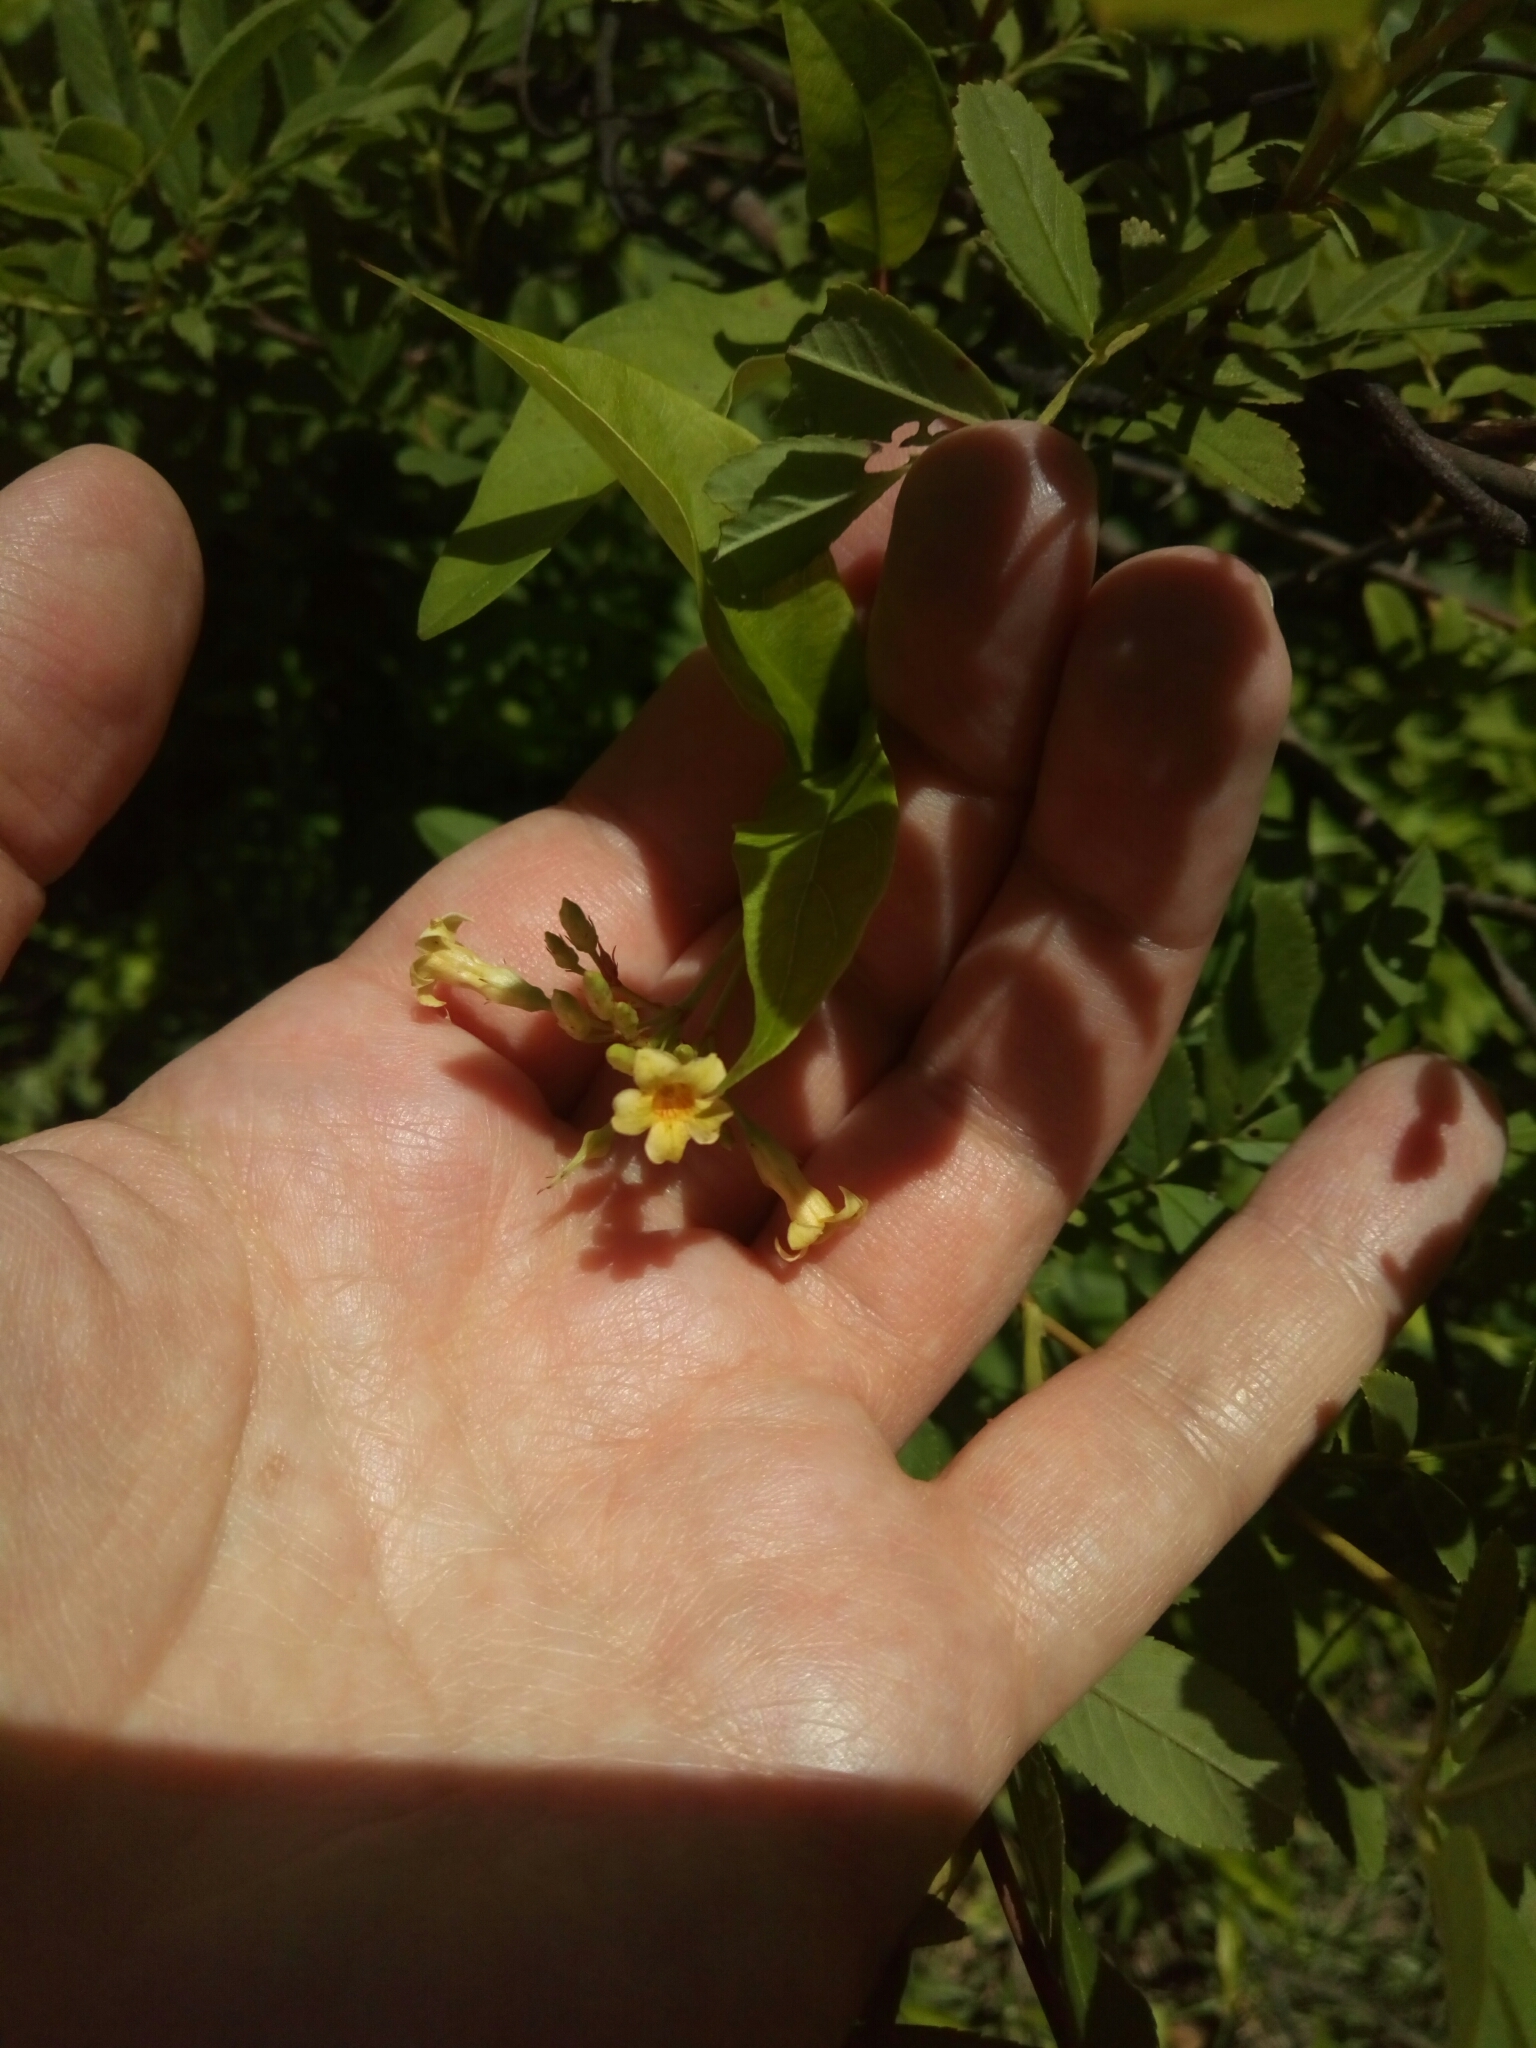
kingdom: Plantae
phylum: Tracheophyta
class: Magnoliopsida
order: Gentianales
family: Apocynaceae
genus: Thyrsanthella
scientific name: Thyrsanthella difformis
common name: Climbing dogbane
